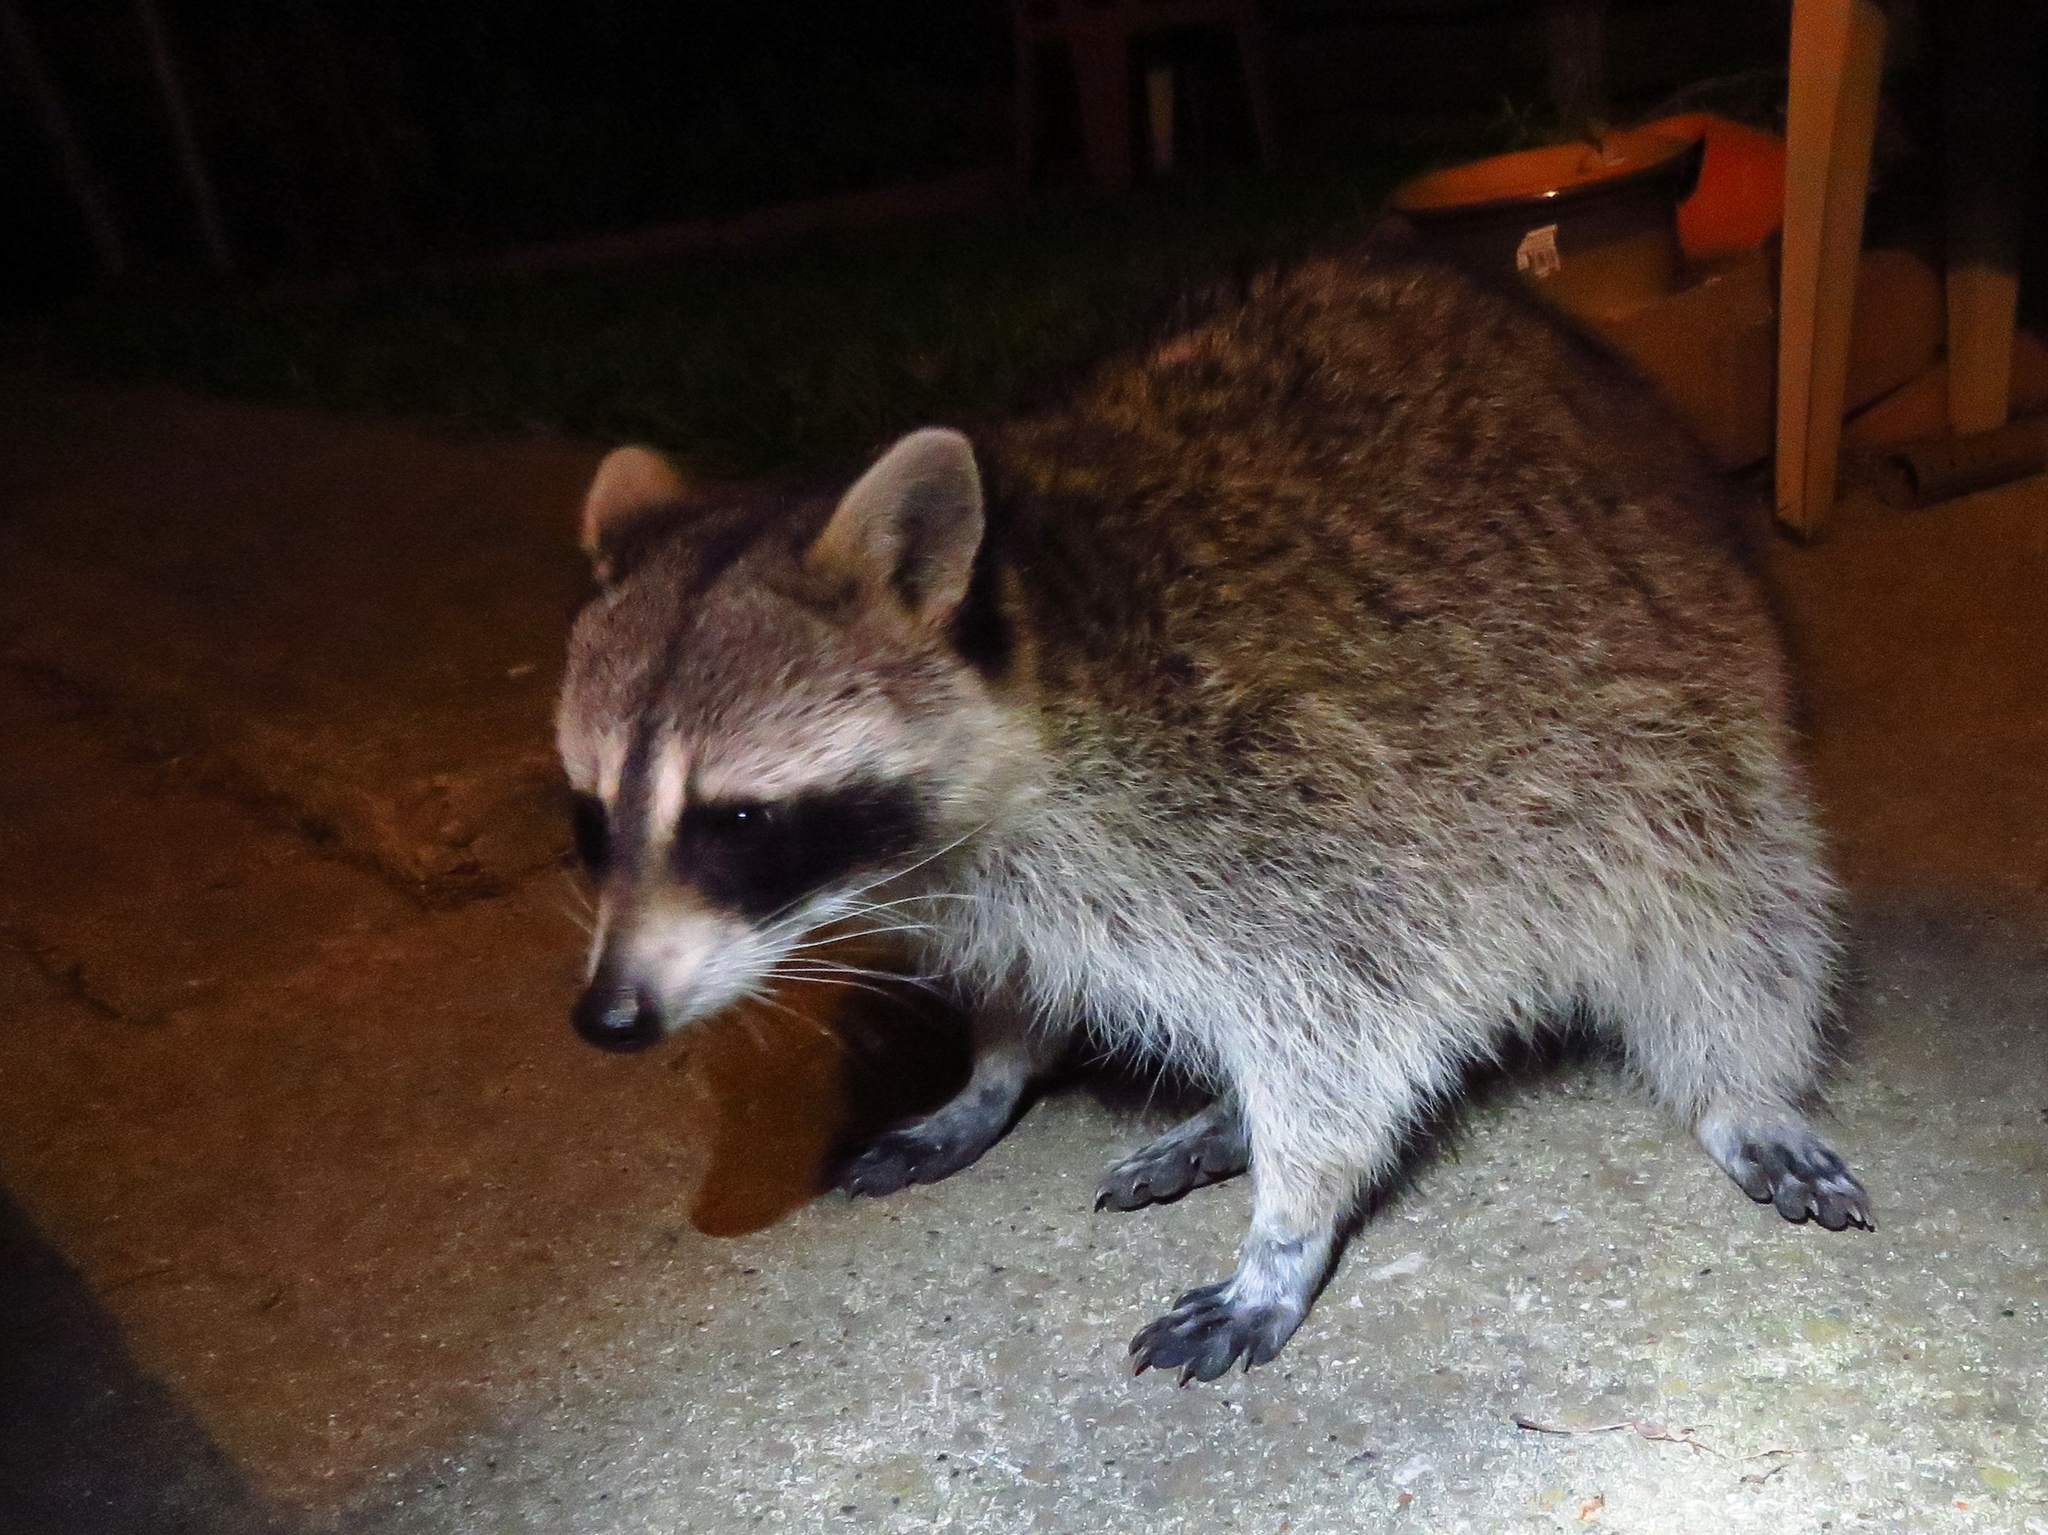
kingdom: Animalia
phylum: Chordata
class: Mammalia
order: Carnivora
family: Procyonidae
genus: Procyon
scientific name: Procyon lotor
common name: Raccoon
